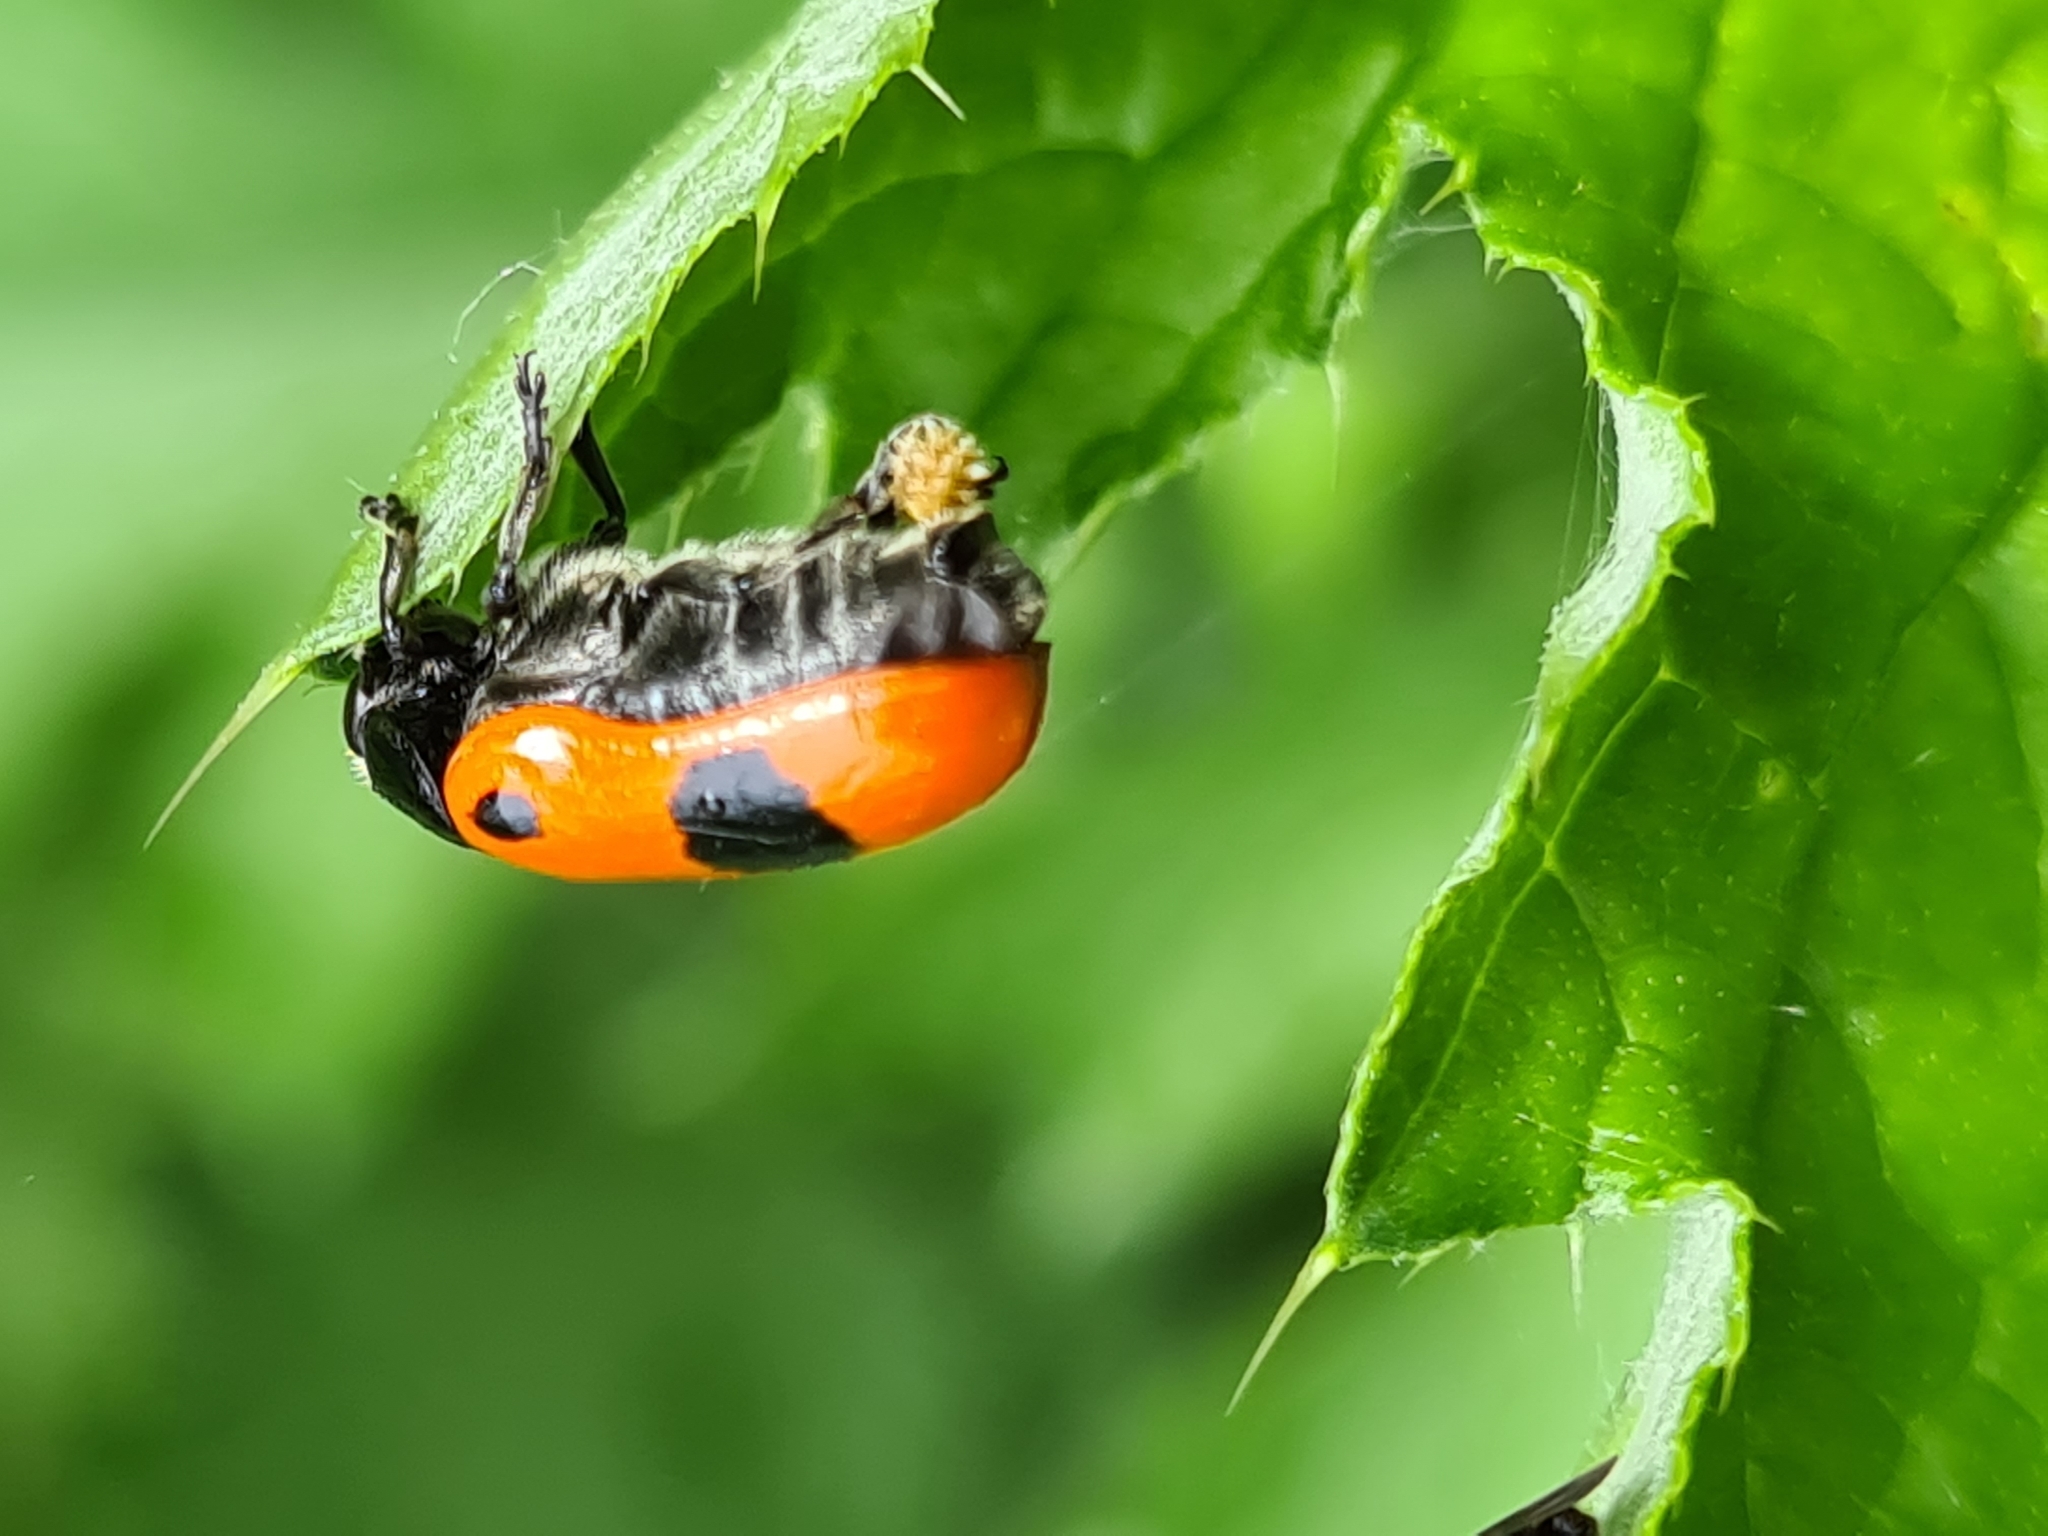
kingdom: Animalia
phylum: Arthropoda
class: Insecta
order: Coleoptera
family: Chrysomelidae
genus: Clytra
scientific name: Clytra laeviuscula
